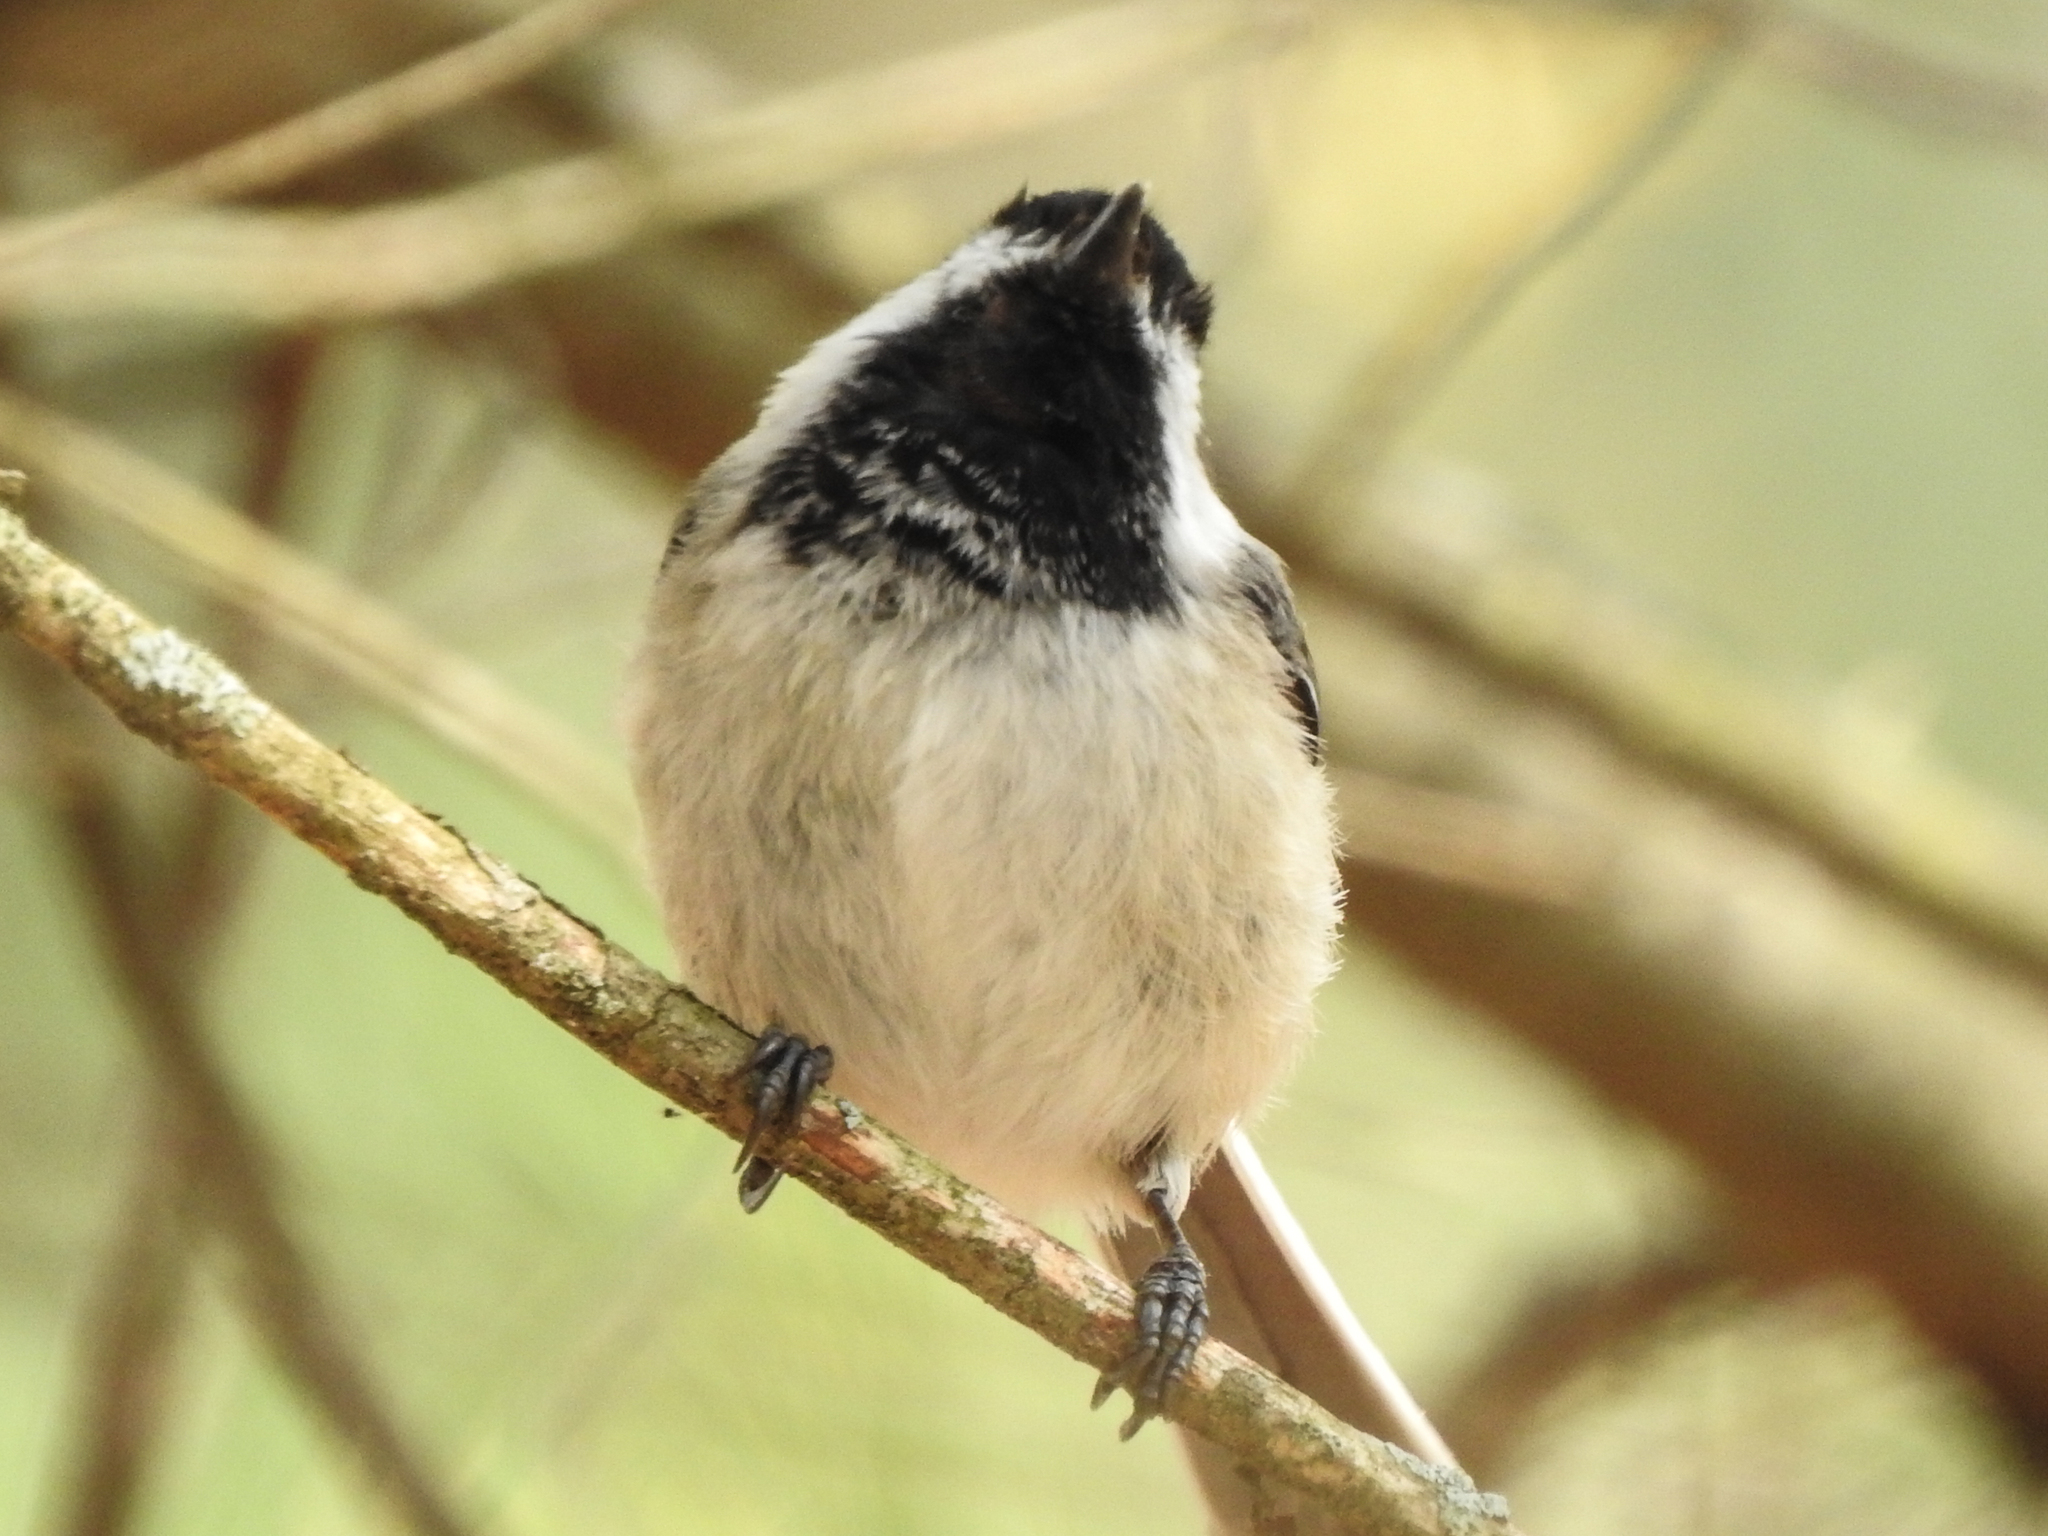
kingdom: Animalia
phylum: Chordata
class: Aves
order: Passeriformes
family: Paridae
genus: Poecile
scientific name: Poecile atricapillus
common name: Black-capped chickadee
